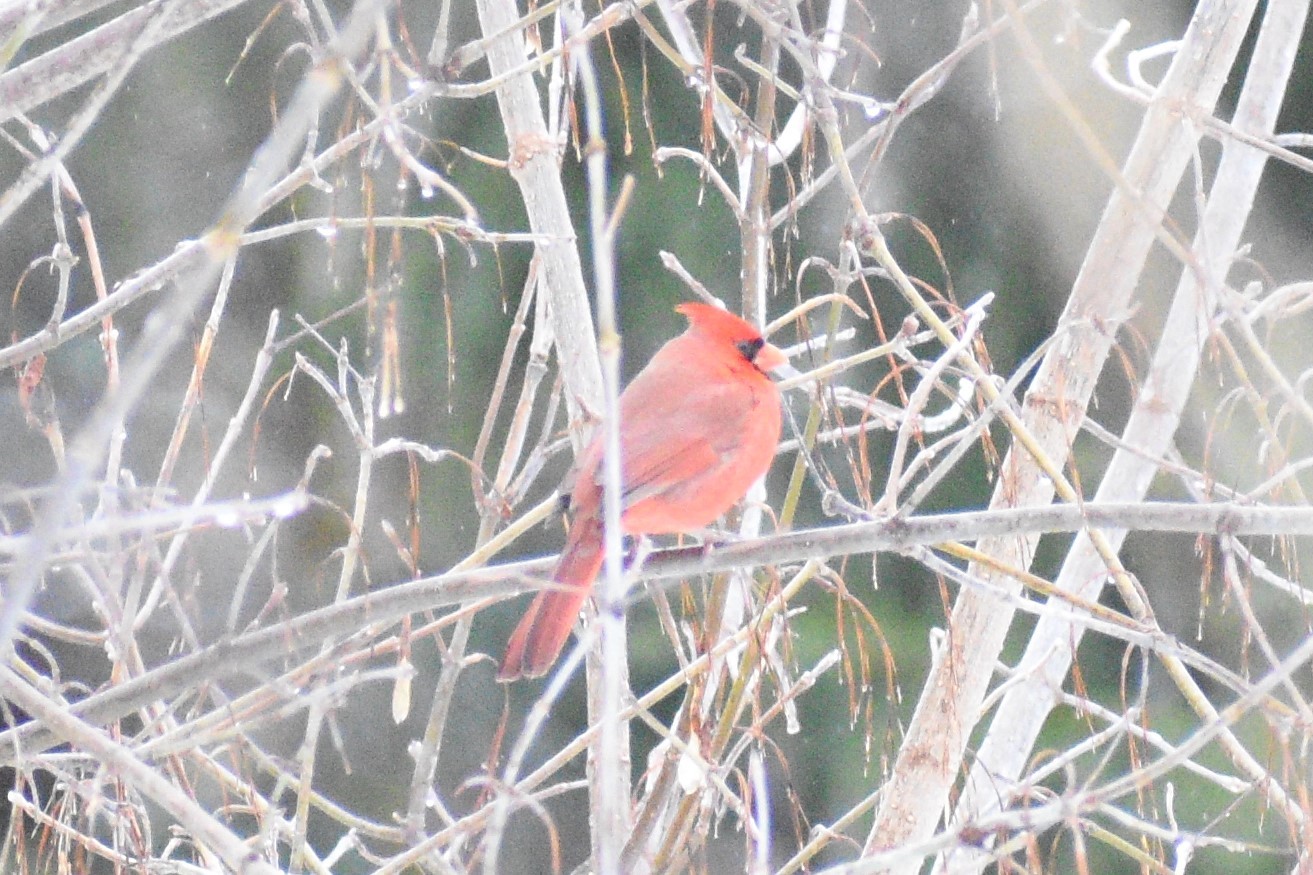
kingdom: Animalia
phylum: Chordata
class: Aves
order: Passeriformes
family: Cardinalidae
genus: Cardinalis
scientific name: Cardinalis cardinalis
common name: Northern cardinal
